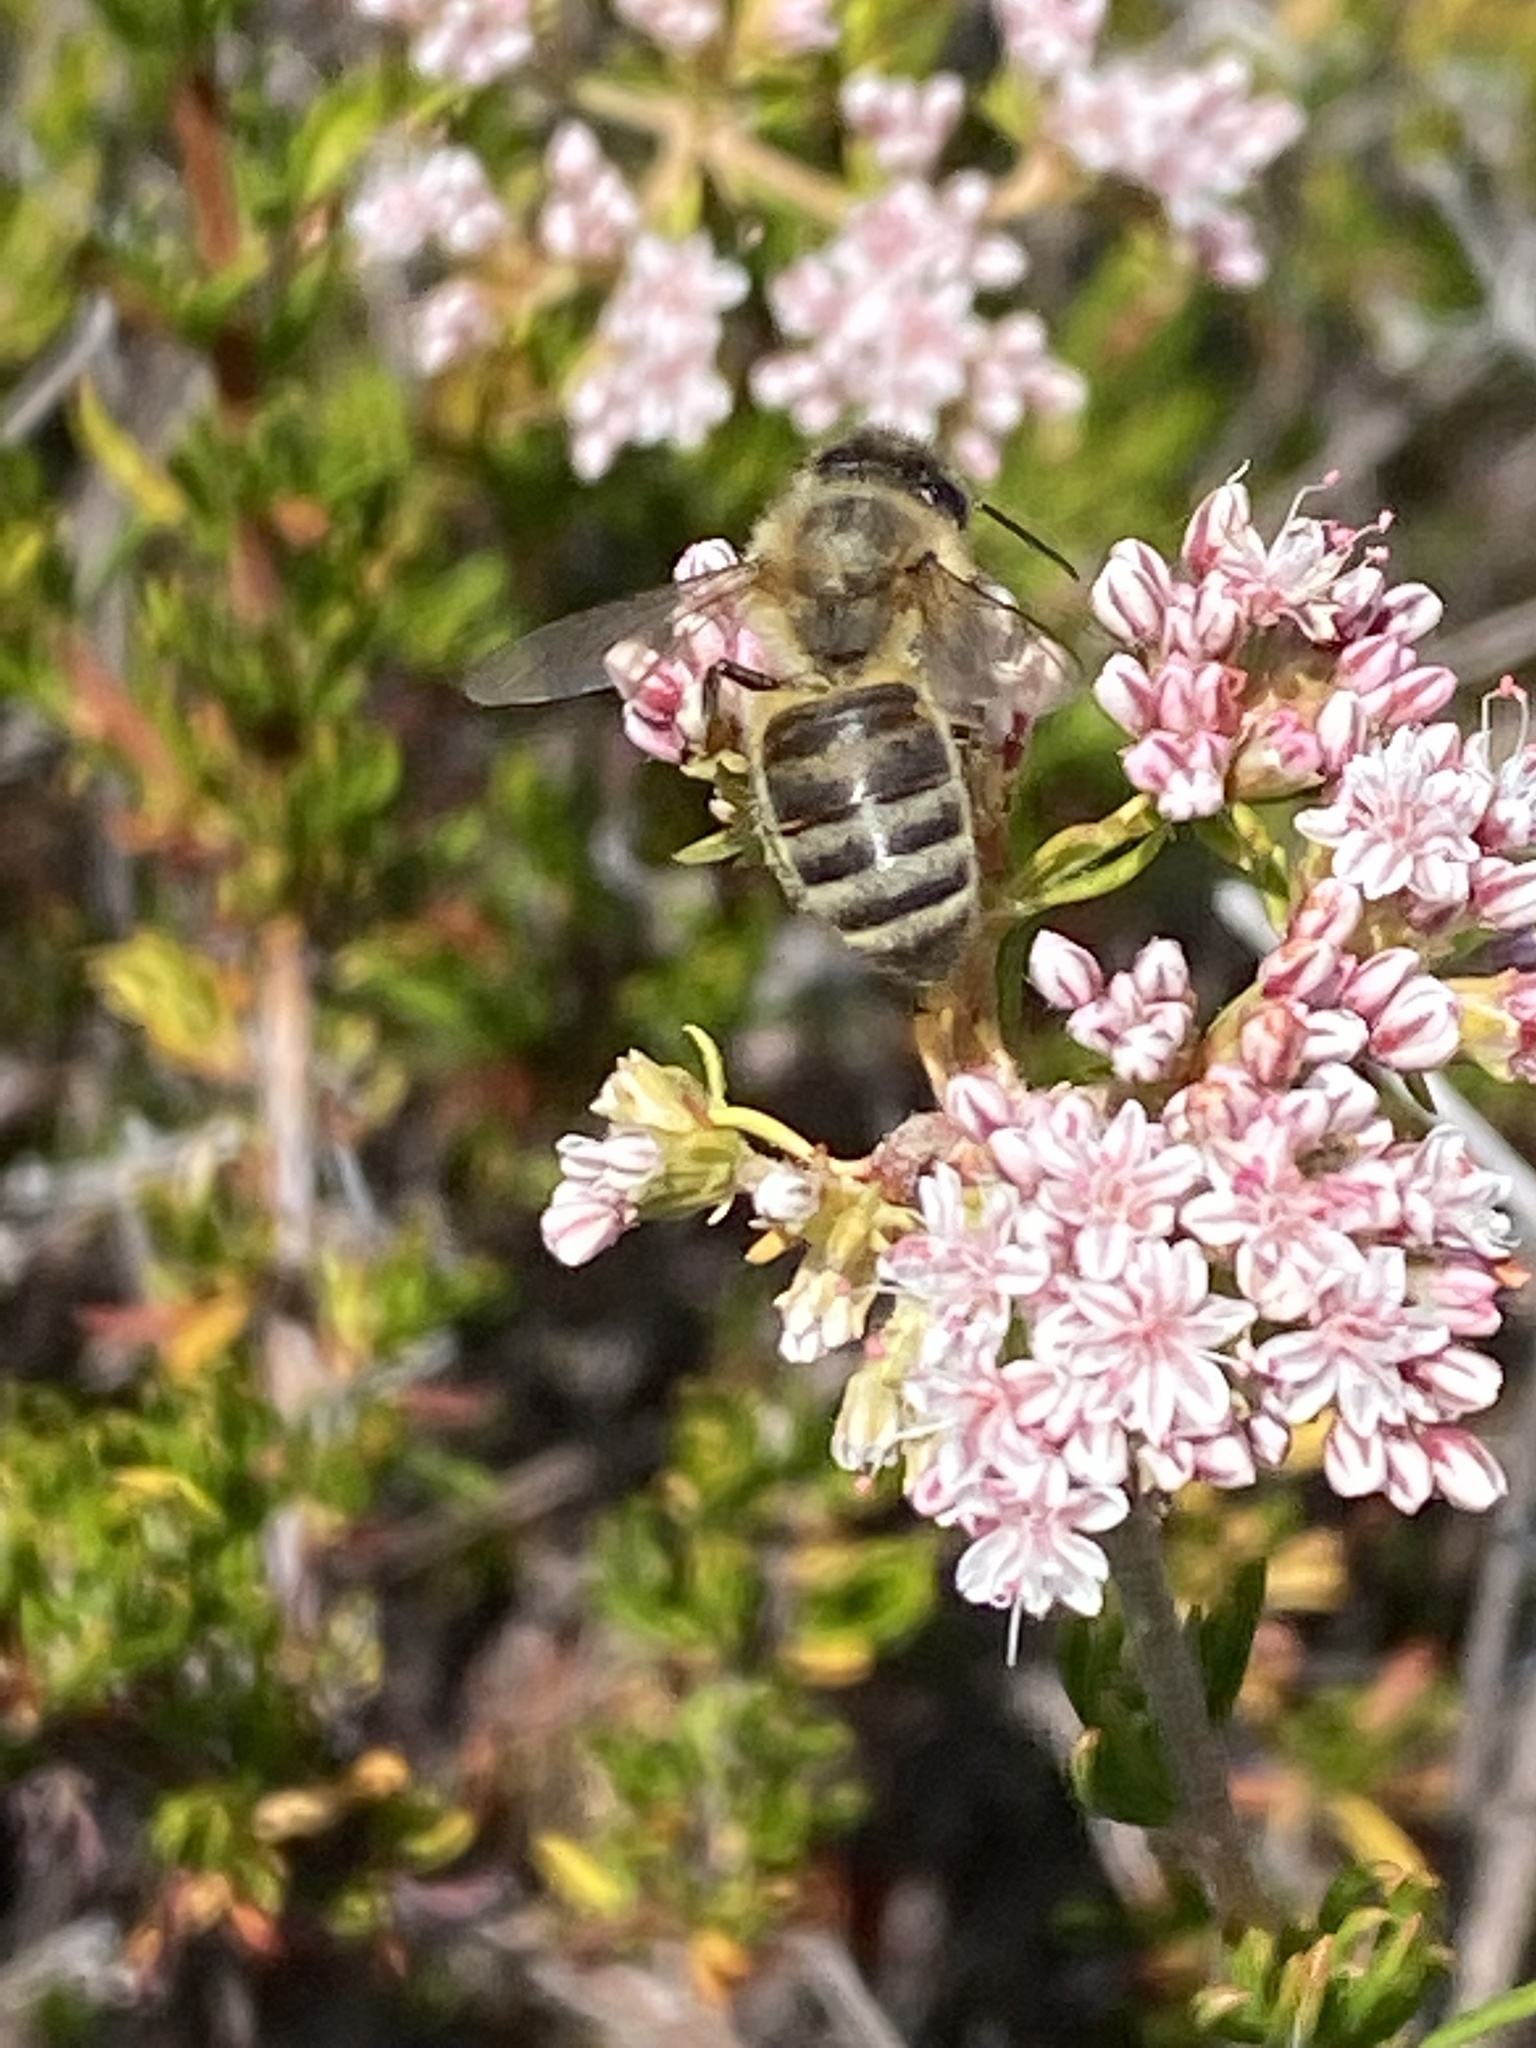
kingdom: Animalia
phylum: Arthropoda
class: Insecta
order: Hymenoptera
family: Apidae
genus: Apis
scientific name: Apis mellifera
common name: Honey bee
